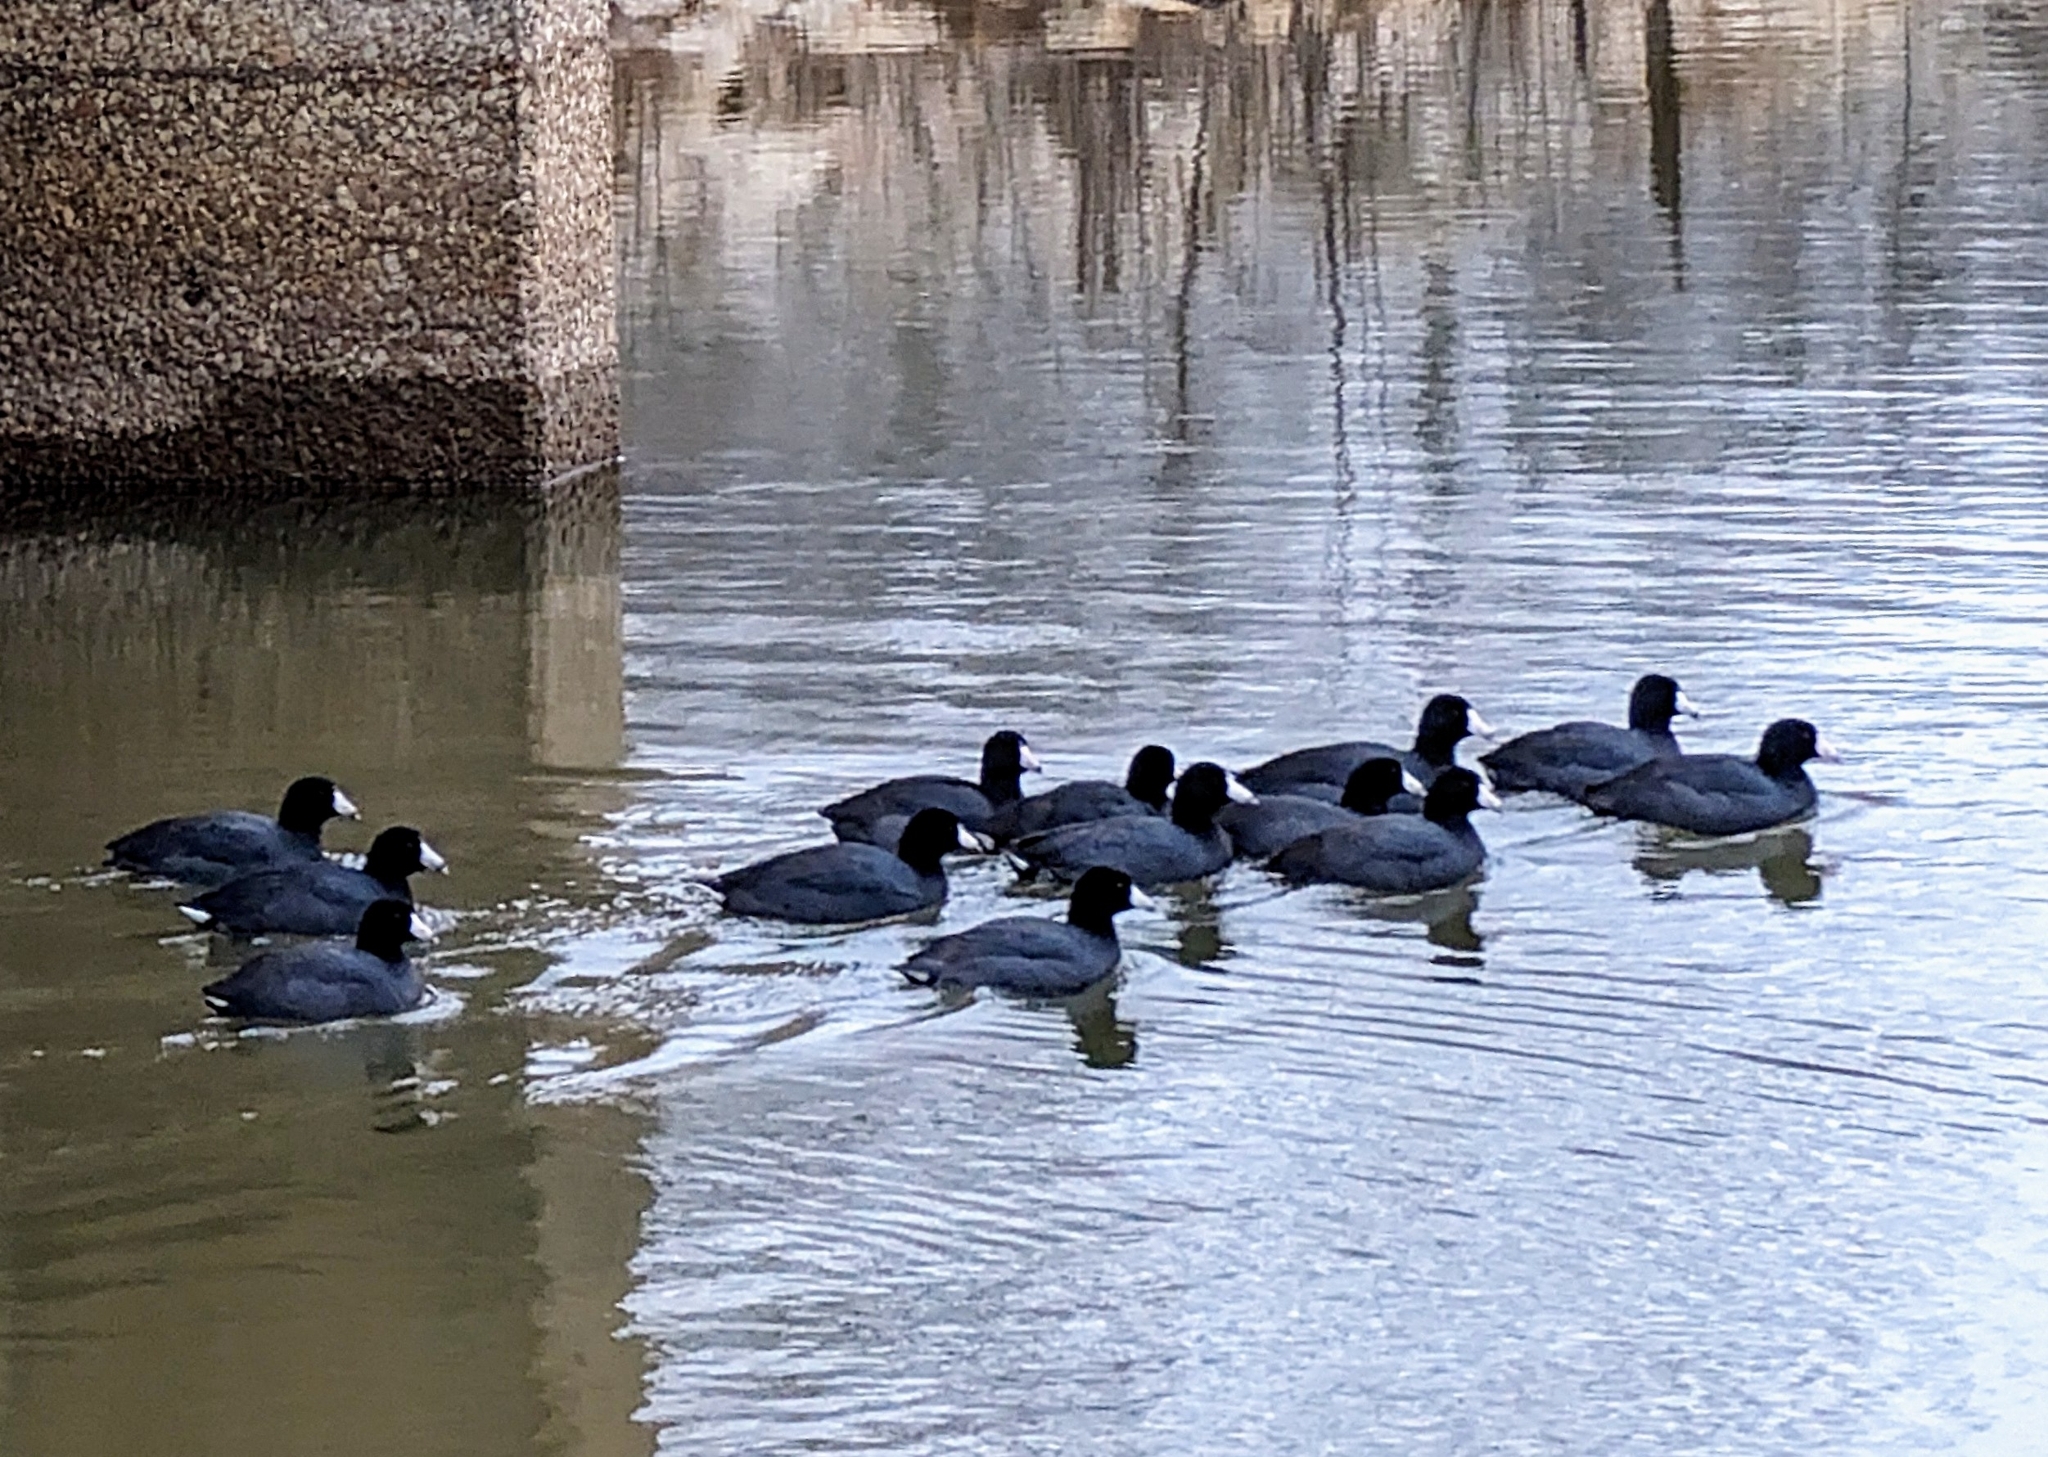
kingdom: Animalia
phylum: Chordata
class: Aves
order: Gruiformes
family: Rallidae
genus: Fulica
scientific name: Fulica americana
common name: American coot
